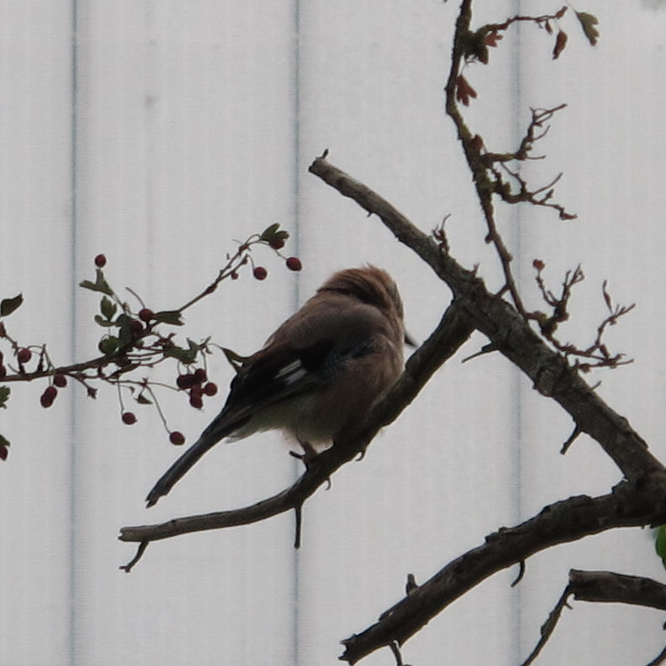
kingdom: Animalia
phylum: Chordata
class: Aves
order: Passeriformes
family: Corvidae
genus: Garrulus
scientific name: Garrulus glandarius
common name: Eurasian jay
